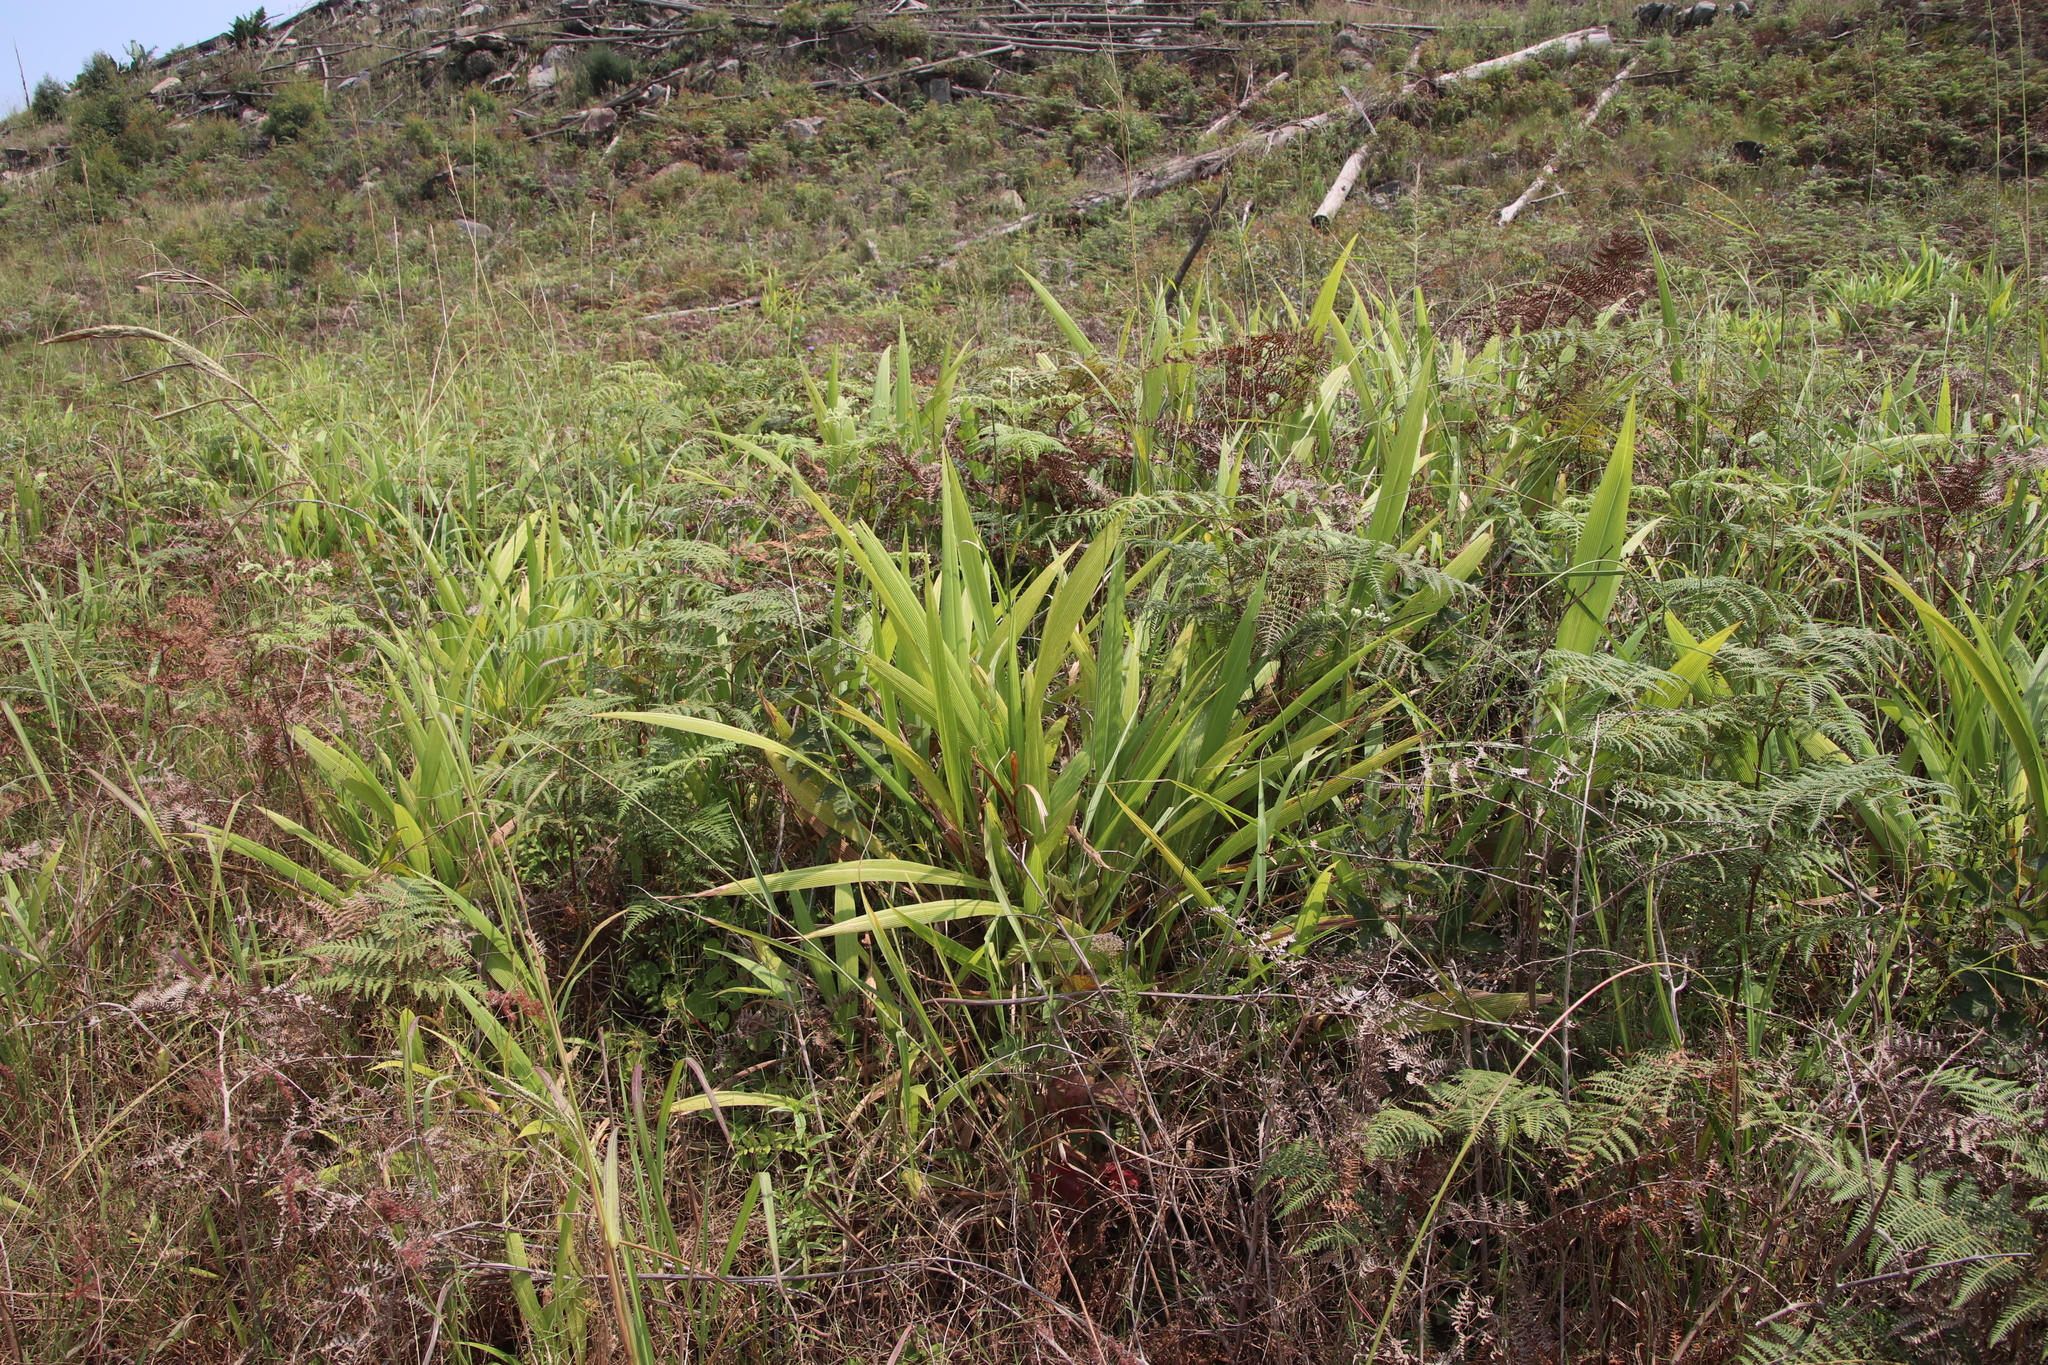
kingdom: Plantae
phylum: Tracheophyta
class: Liliopsida
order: Poales
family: Poaceae
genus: Setaria
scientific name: Setaria megaphylla
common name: Bigleaf bristlegrass
